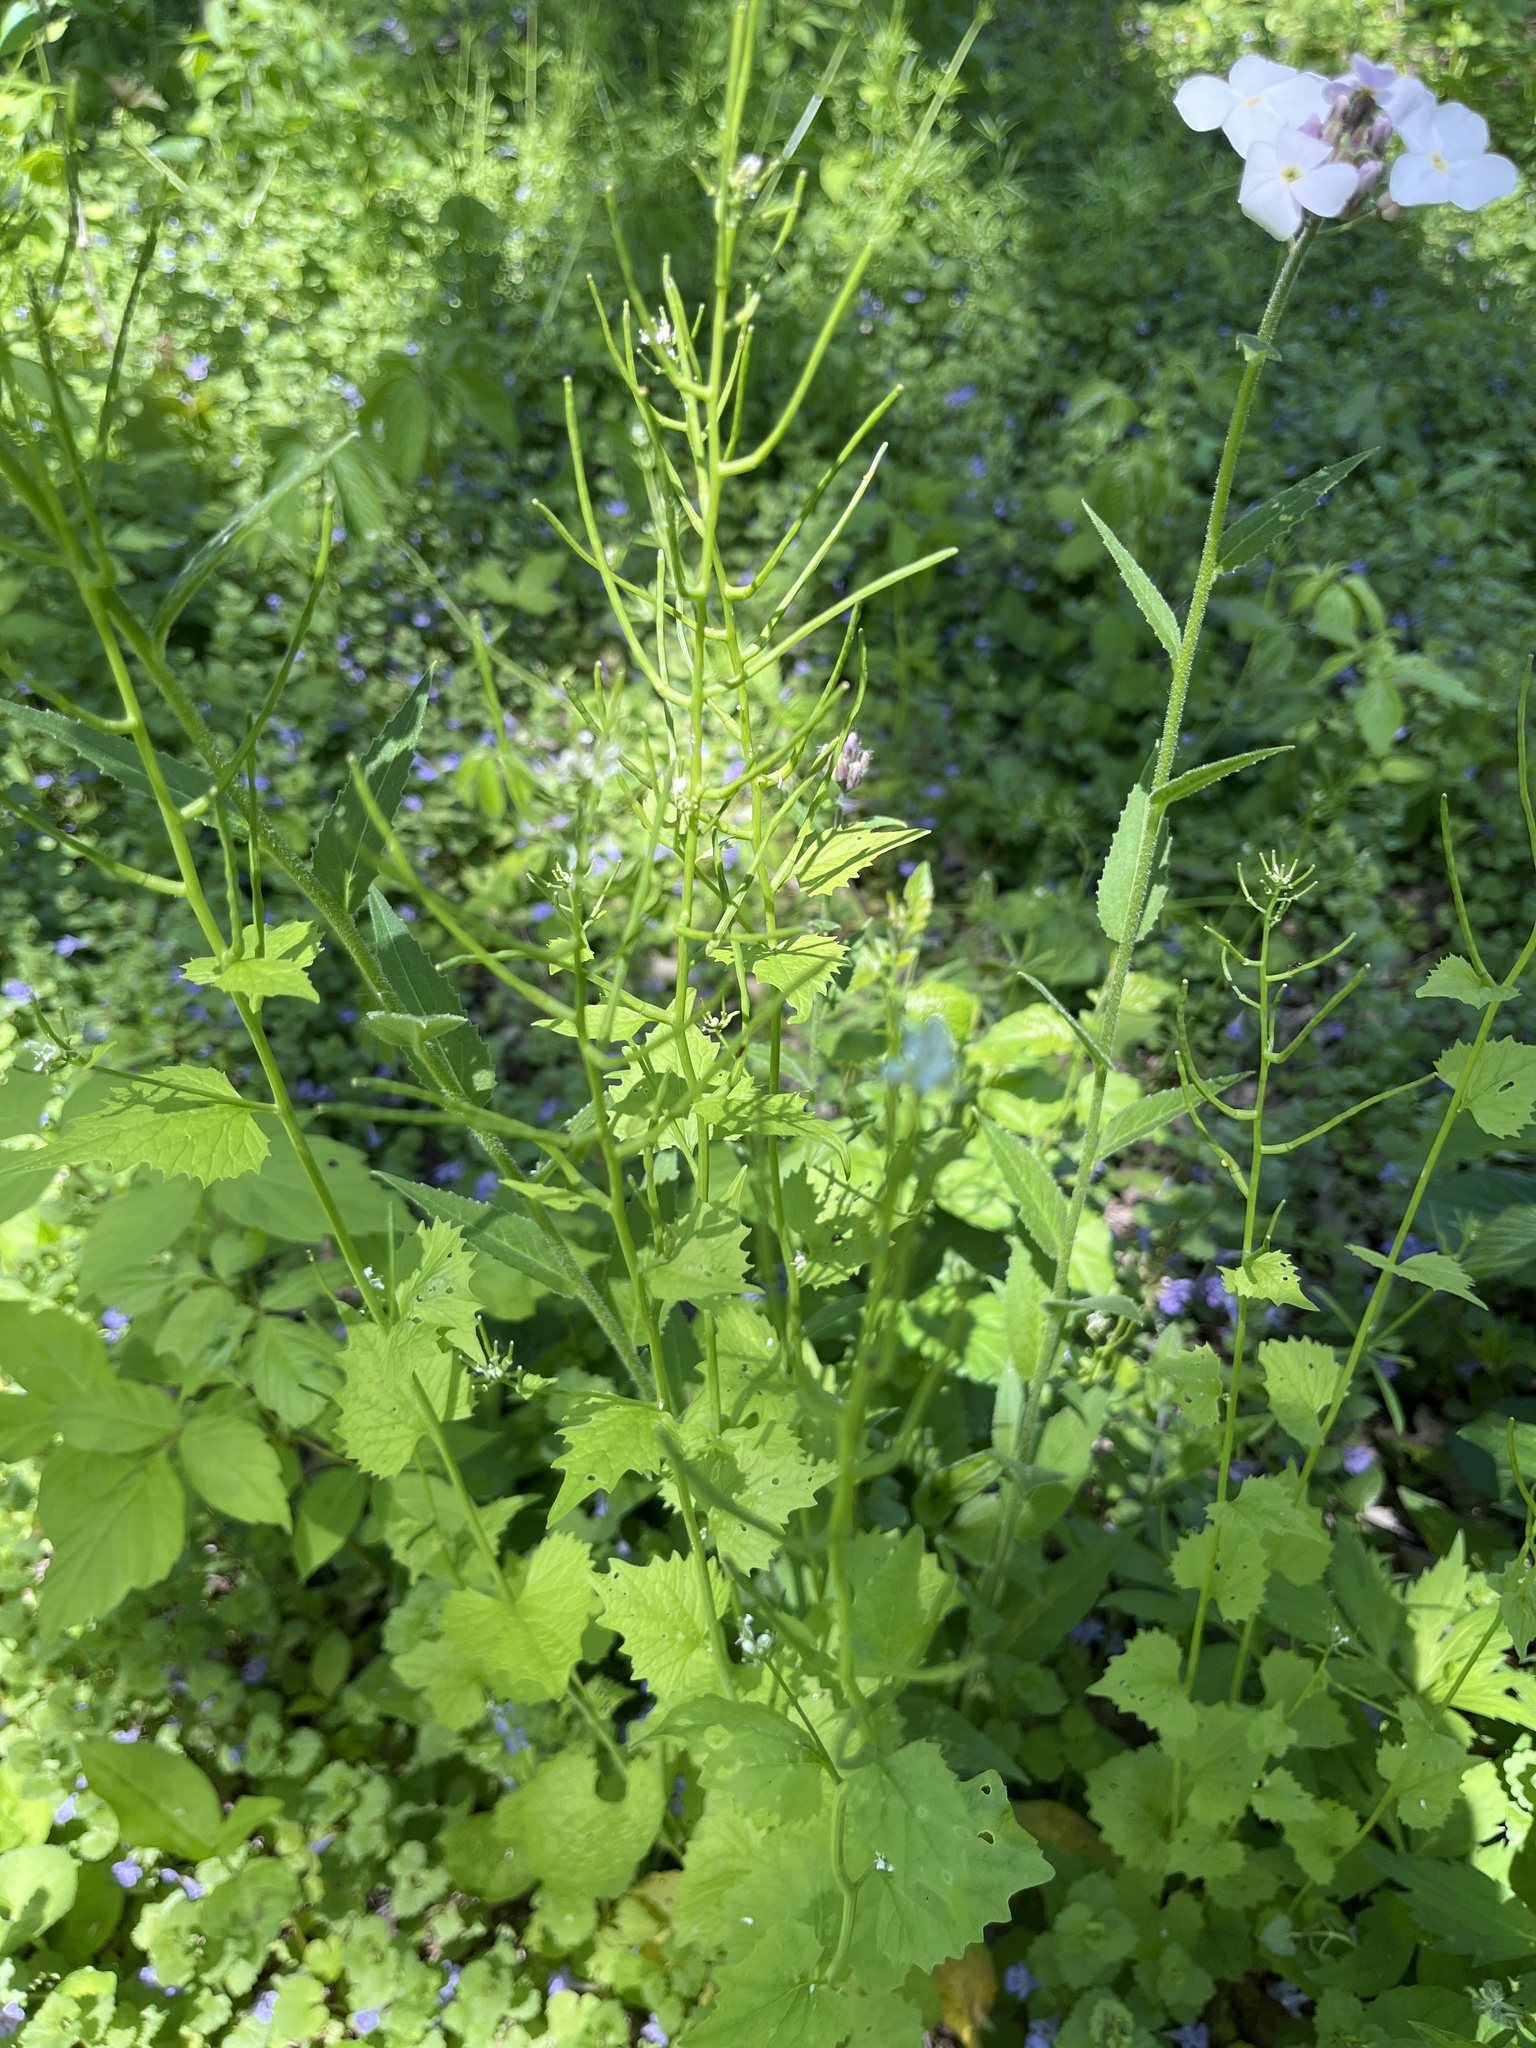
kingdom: Plantae
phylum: Tracheophyta
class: Magnoliopsida
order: Brassicales
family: Brassicaceae
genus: Alliaria
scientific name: Alliaria petiolata
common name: Garlic mustard
